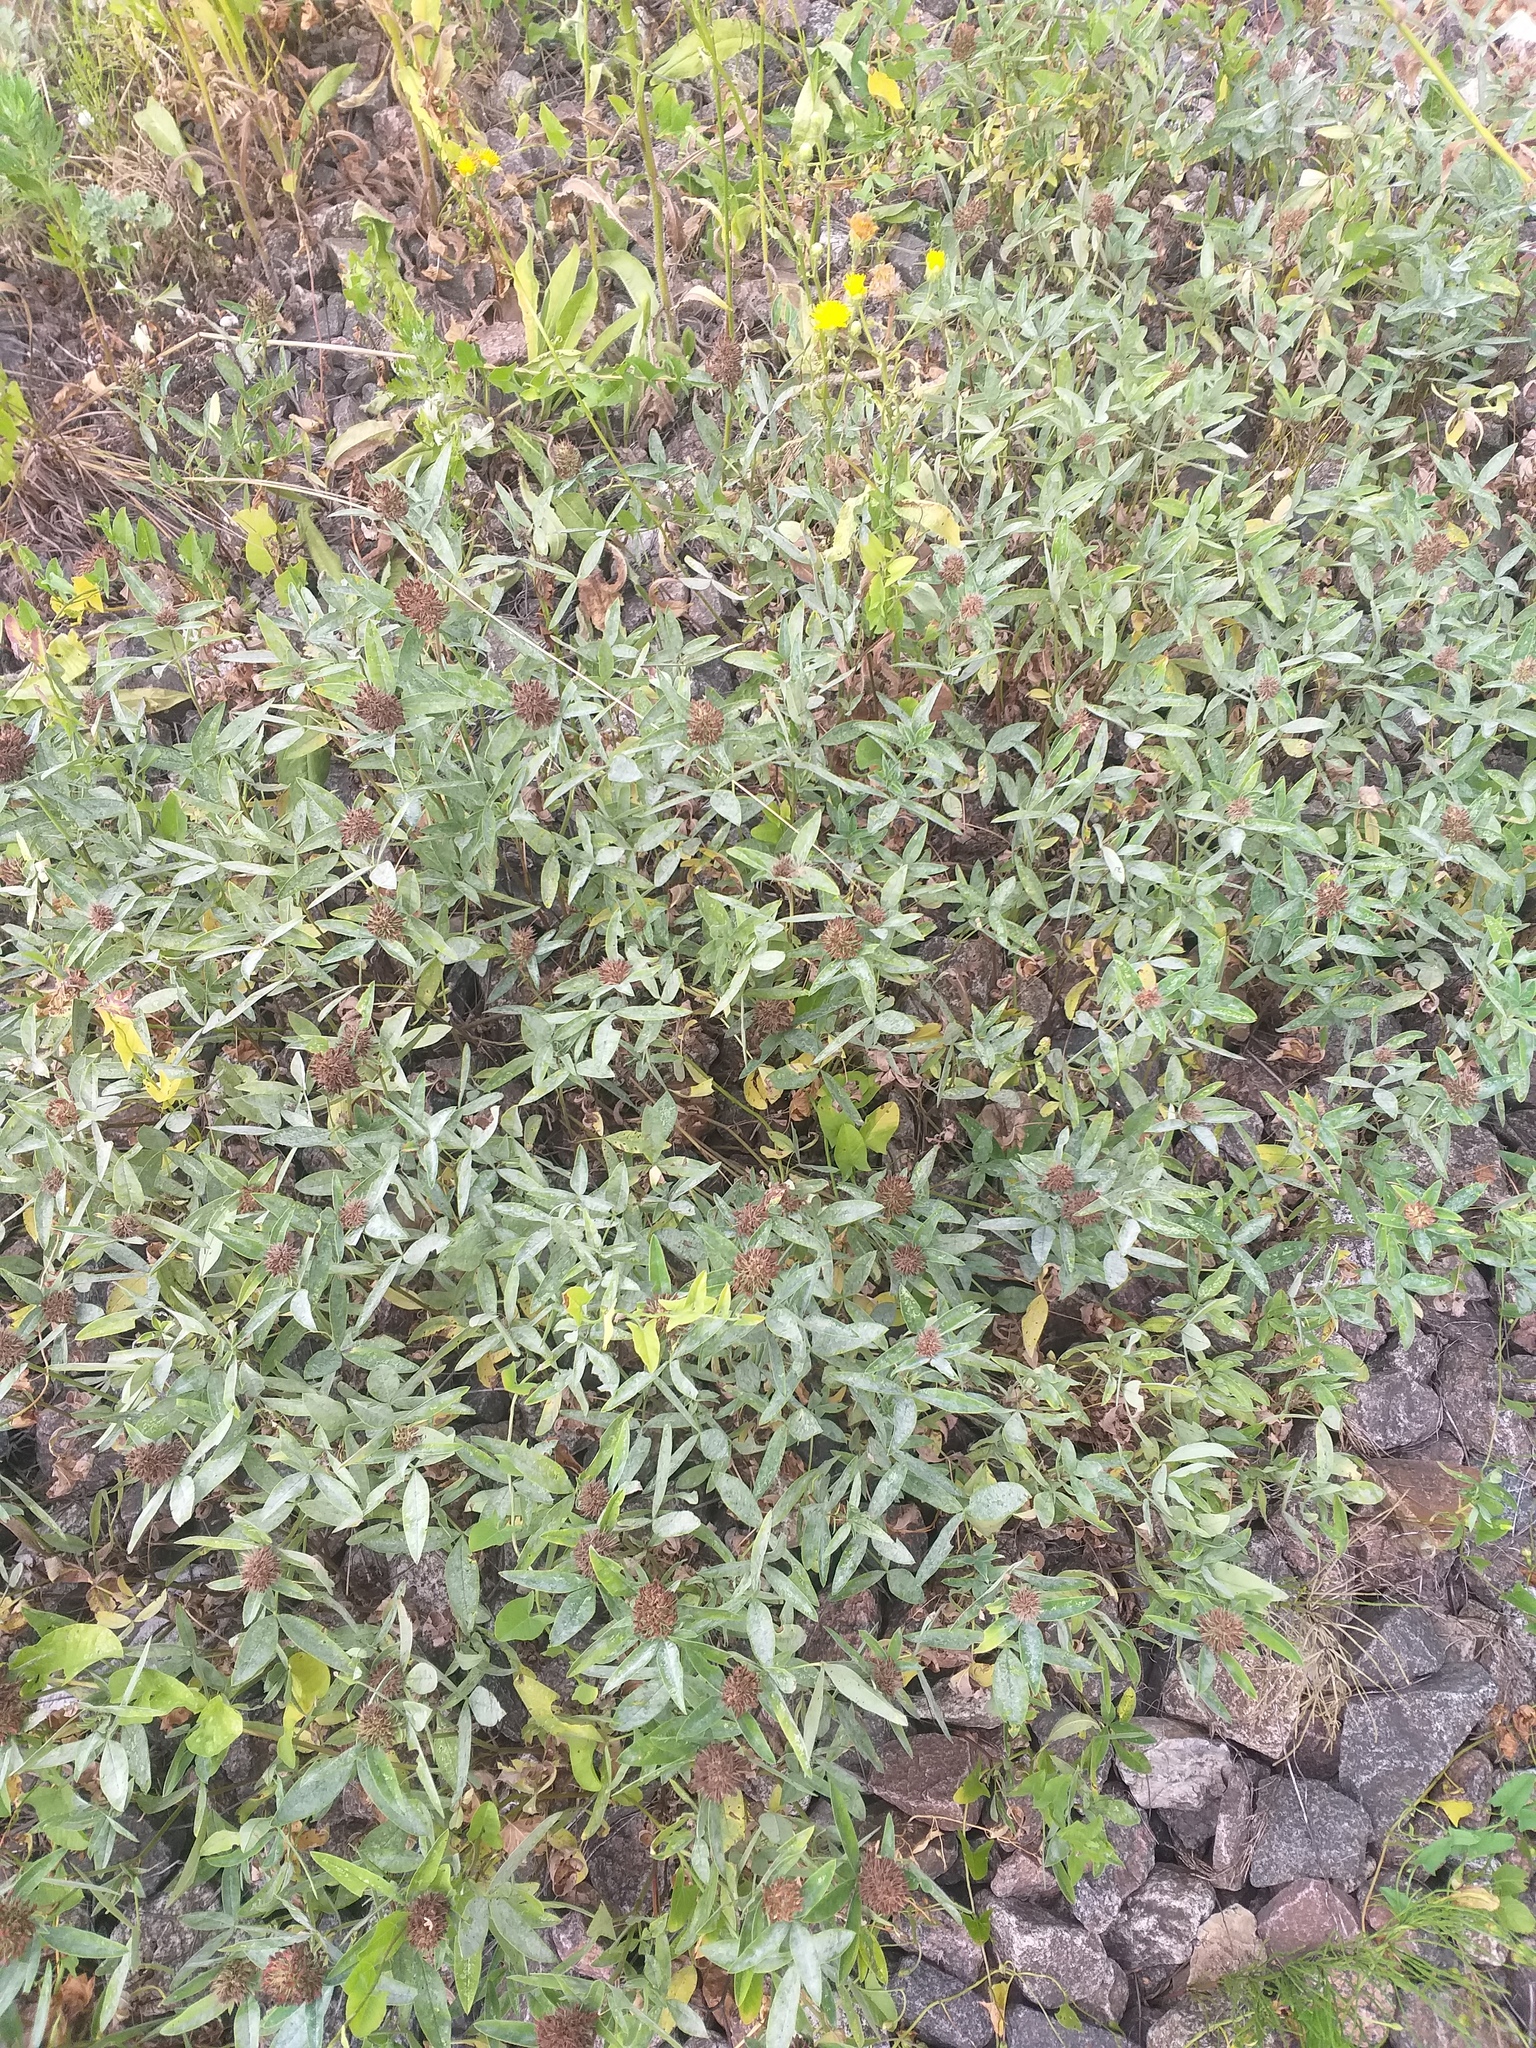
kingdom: Plantae
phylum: Tracheophyta
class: Magnoliopsida
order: Fabales
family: Fabaceae
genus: Trifolium
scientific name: Trifolium medium
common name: Zigzag clover
